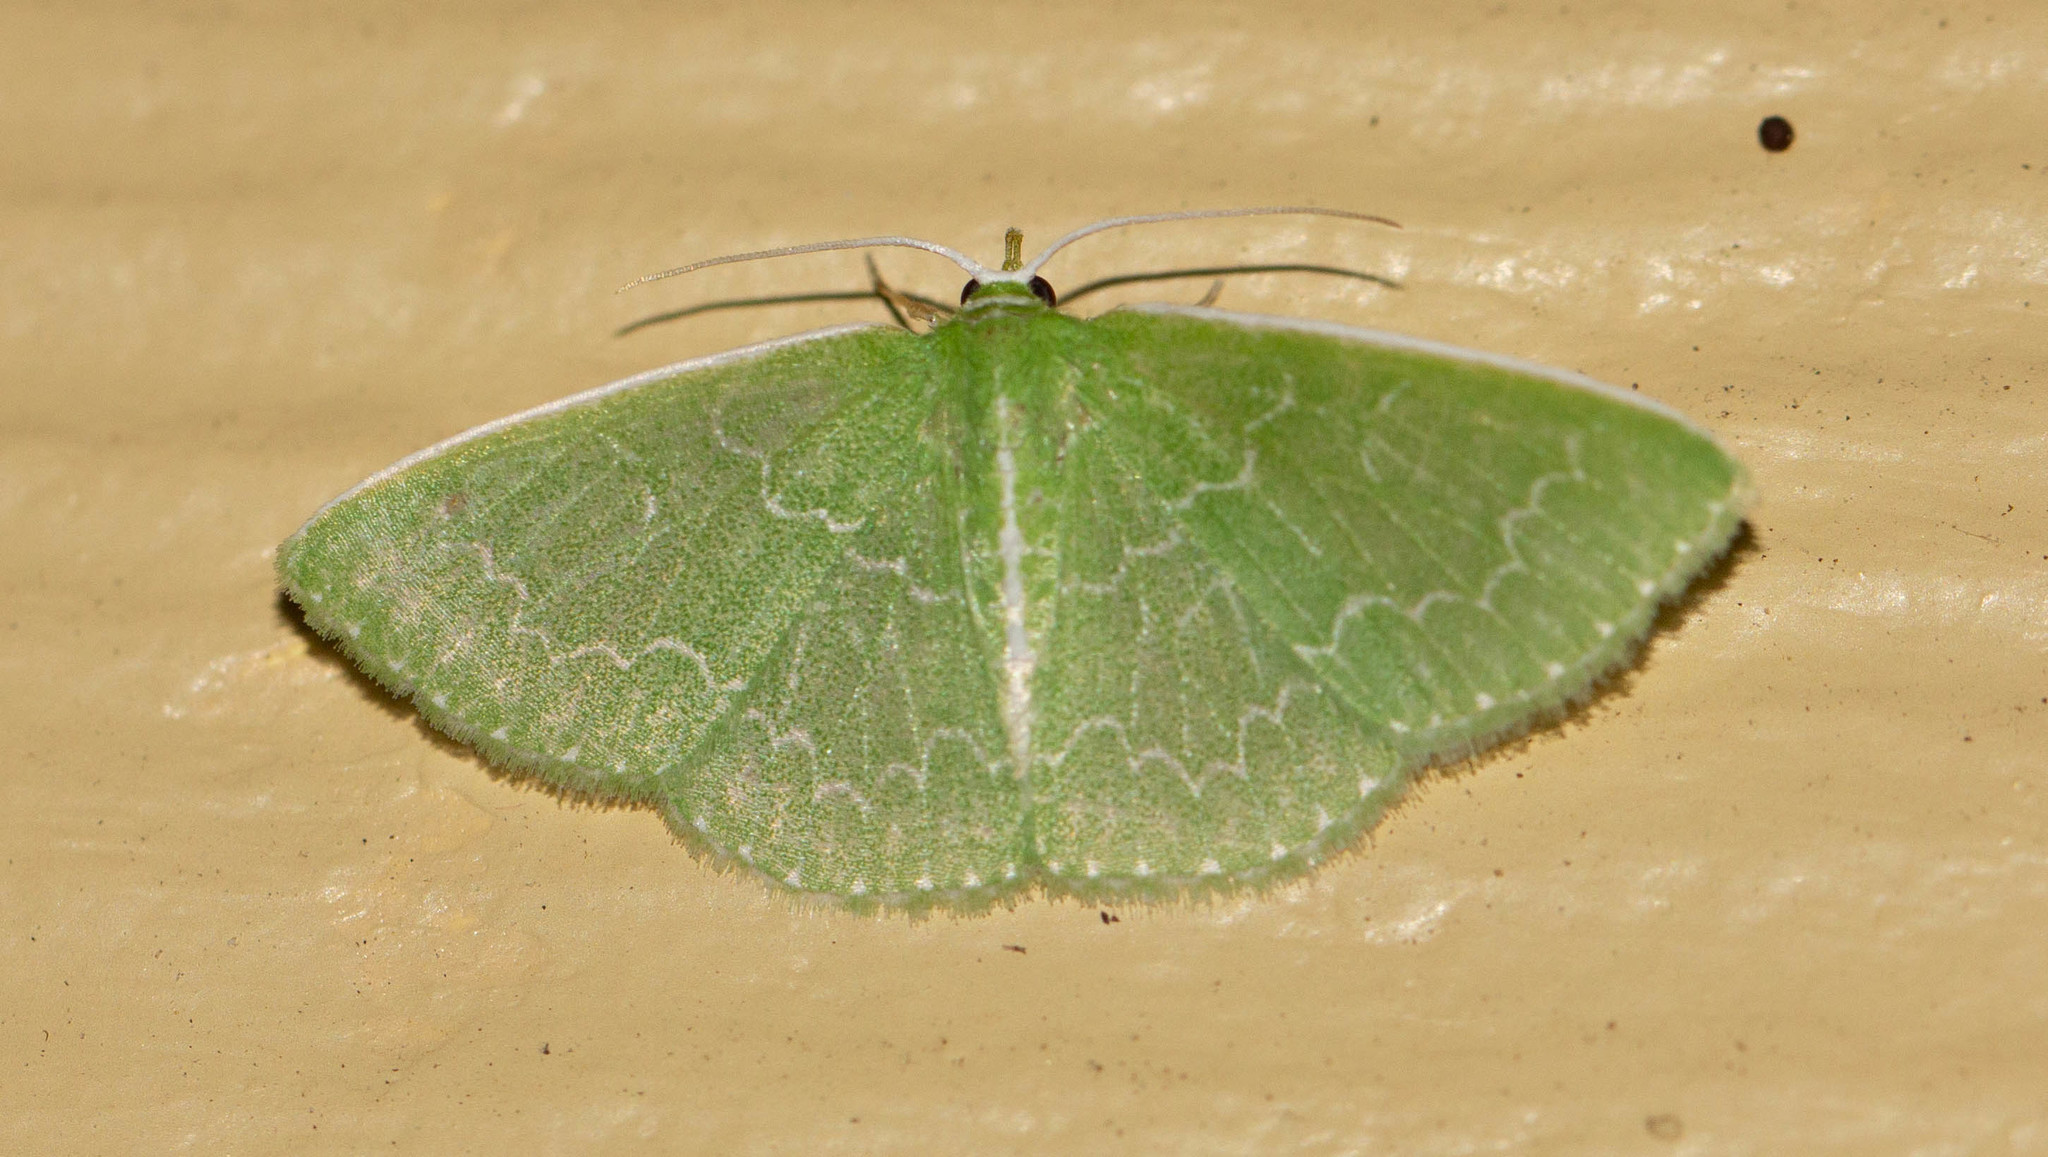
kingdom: Animalia
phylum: Arthropoda
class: Insecta
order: Lepidoptera
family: Geometridae
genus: Synchlora
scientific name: Synchlora frondaria
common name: Southern emerald
